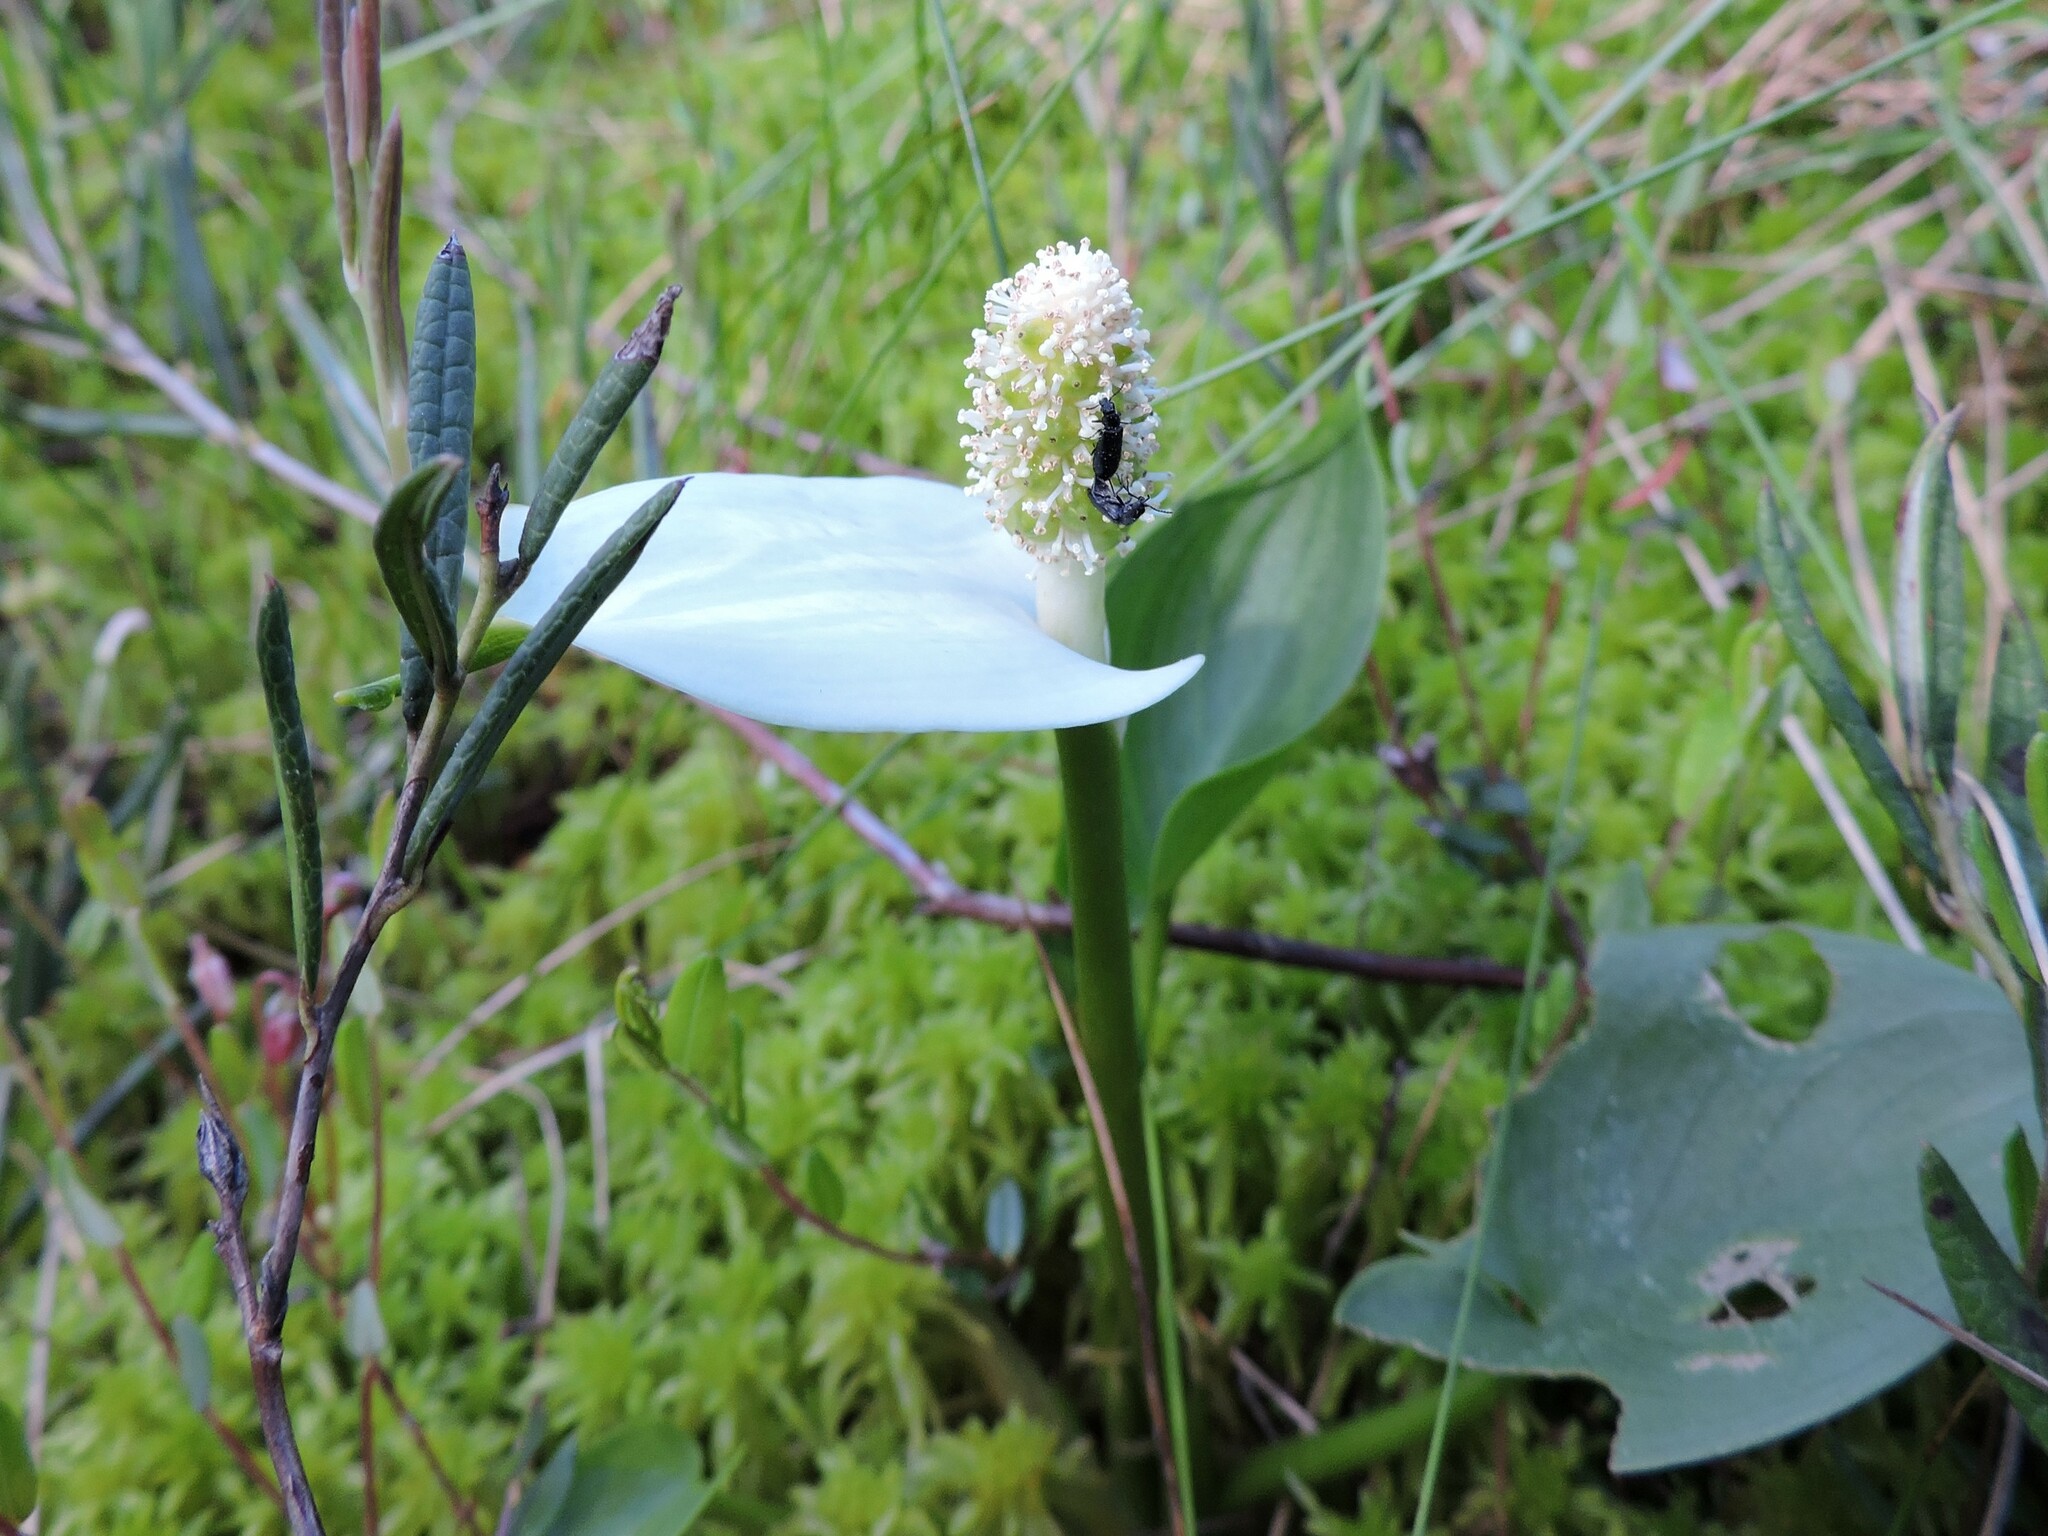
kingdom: Plantae
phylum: Tracheophyta
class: Liliopsida
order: Alismatales
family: Araceae
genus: Calla
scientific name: Calla palustris
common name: Bog arum
